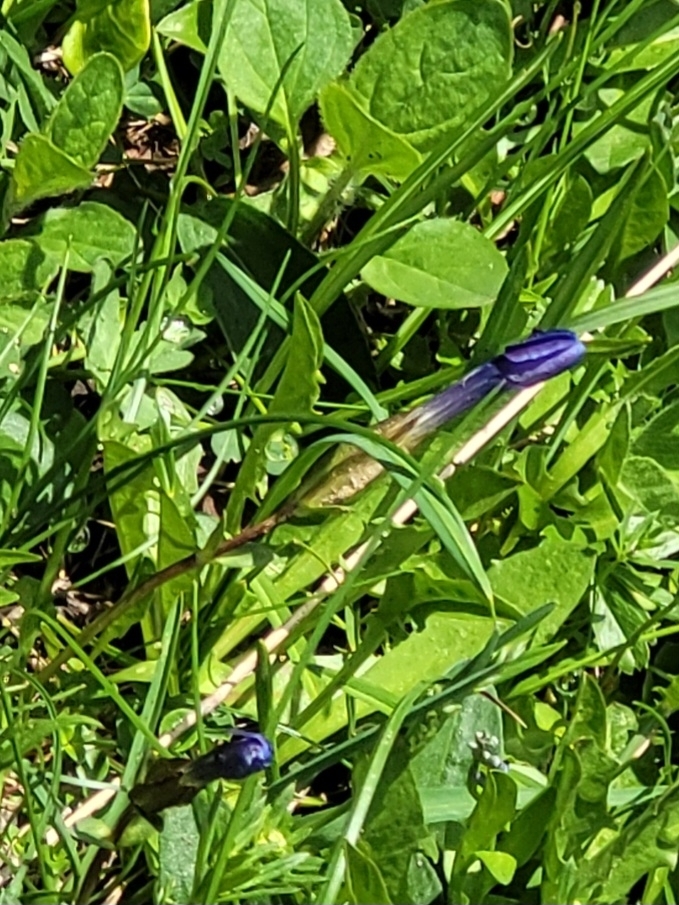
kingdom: Plantae
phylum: Tracheophyta
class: Magnoliopsida
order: Gentianales
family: Gentianaceae
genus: Gentiana
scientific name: Gentiana verna
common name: Spring gentian
